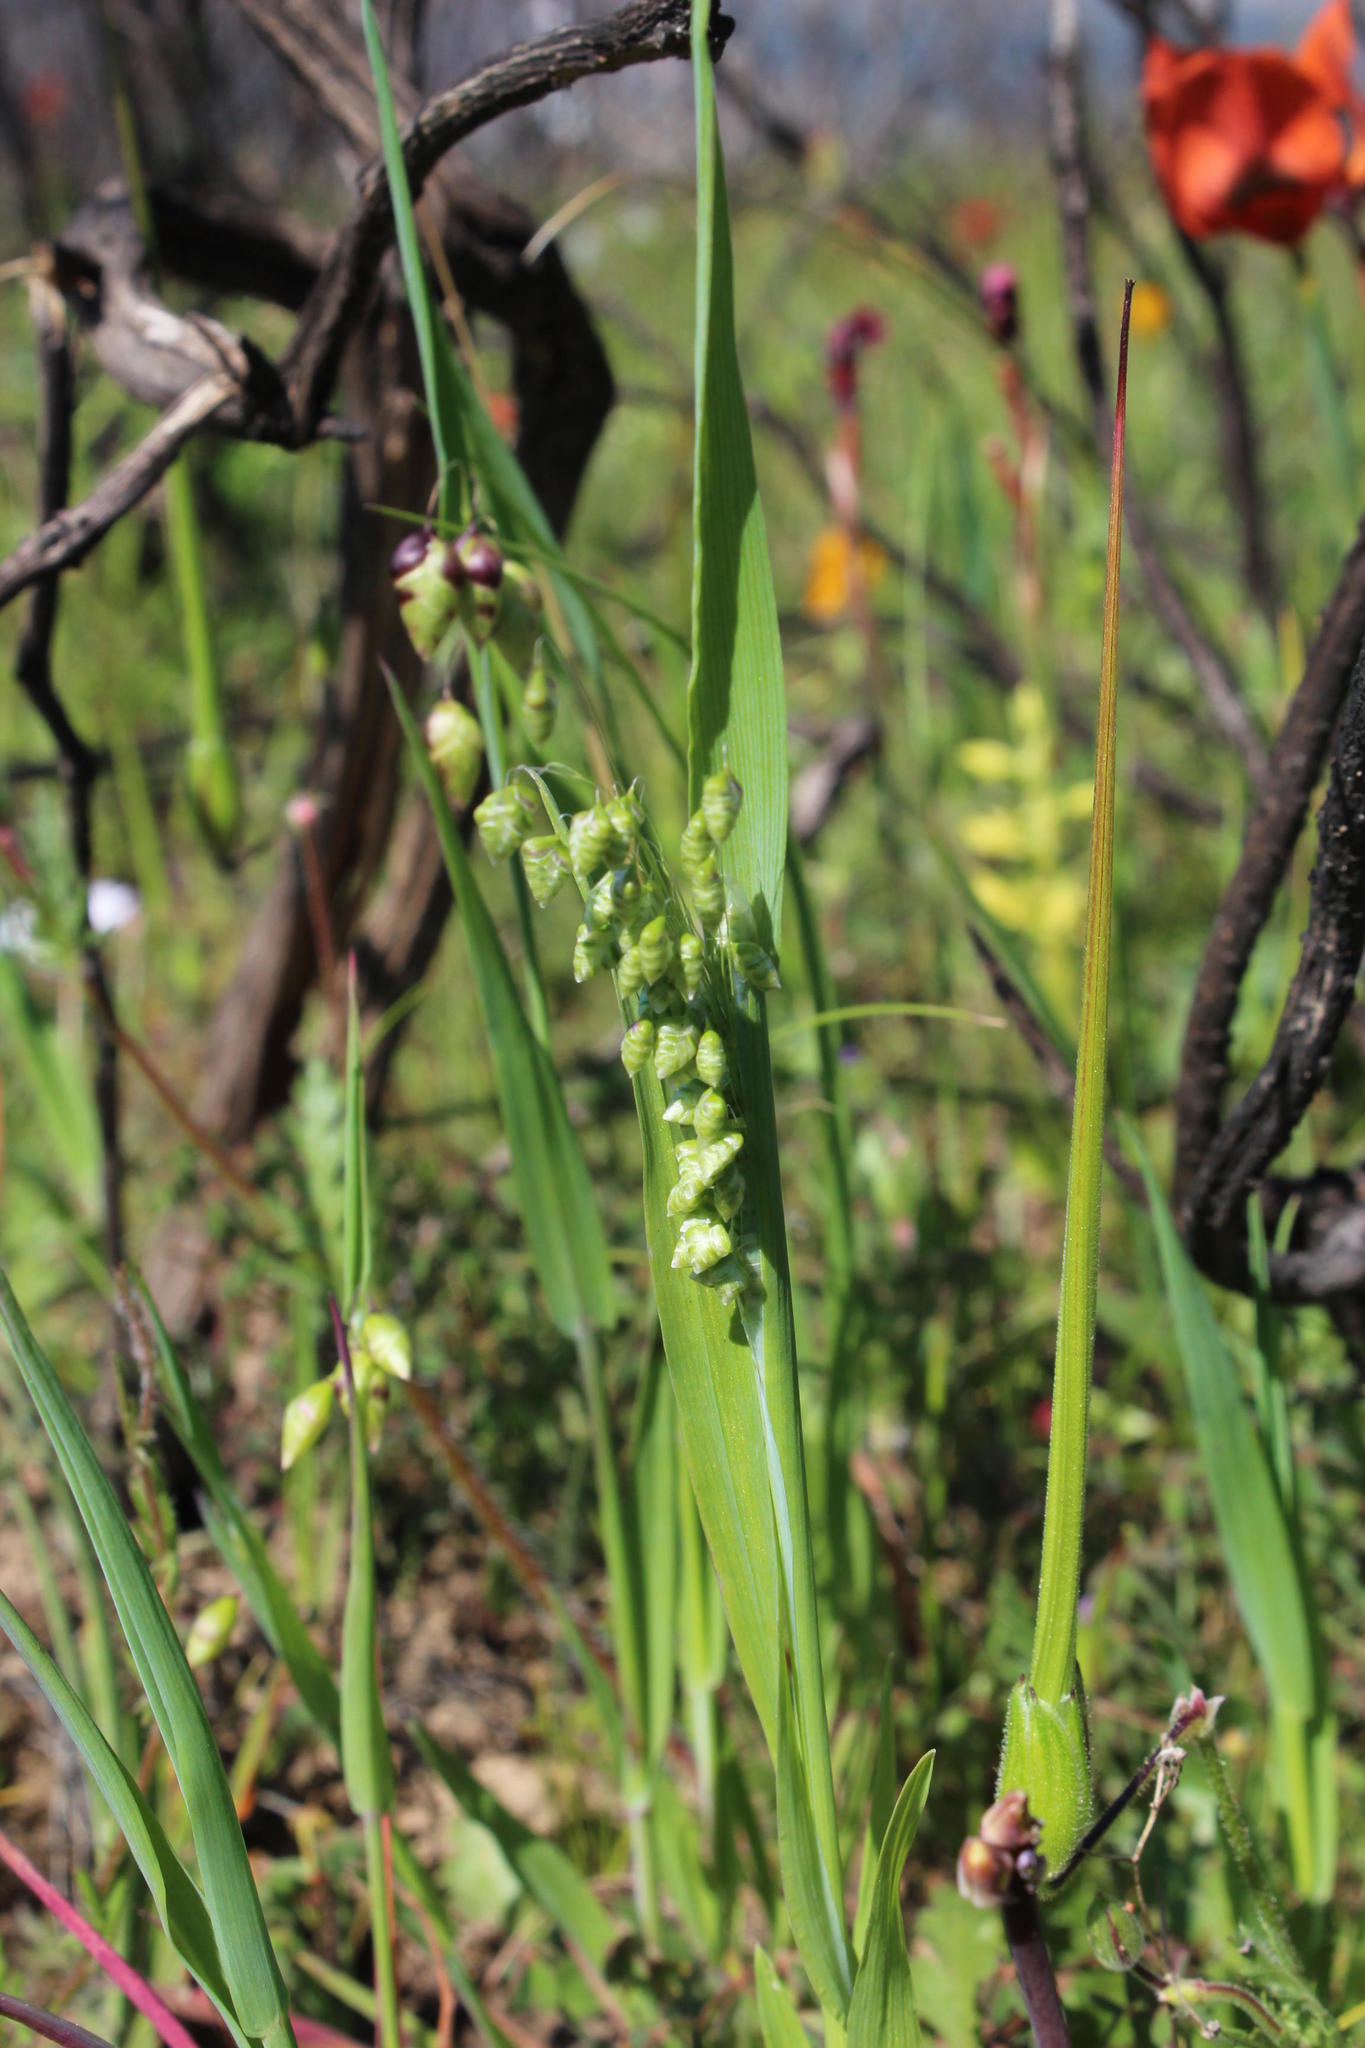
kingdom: Plantae
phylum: Tracheophyta
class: Liliopsida
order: Poales
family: Poaceae
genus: Briza
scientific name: Briza maxima
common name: Big quakinggrass
